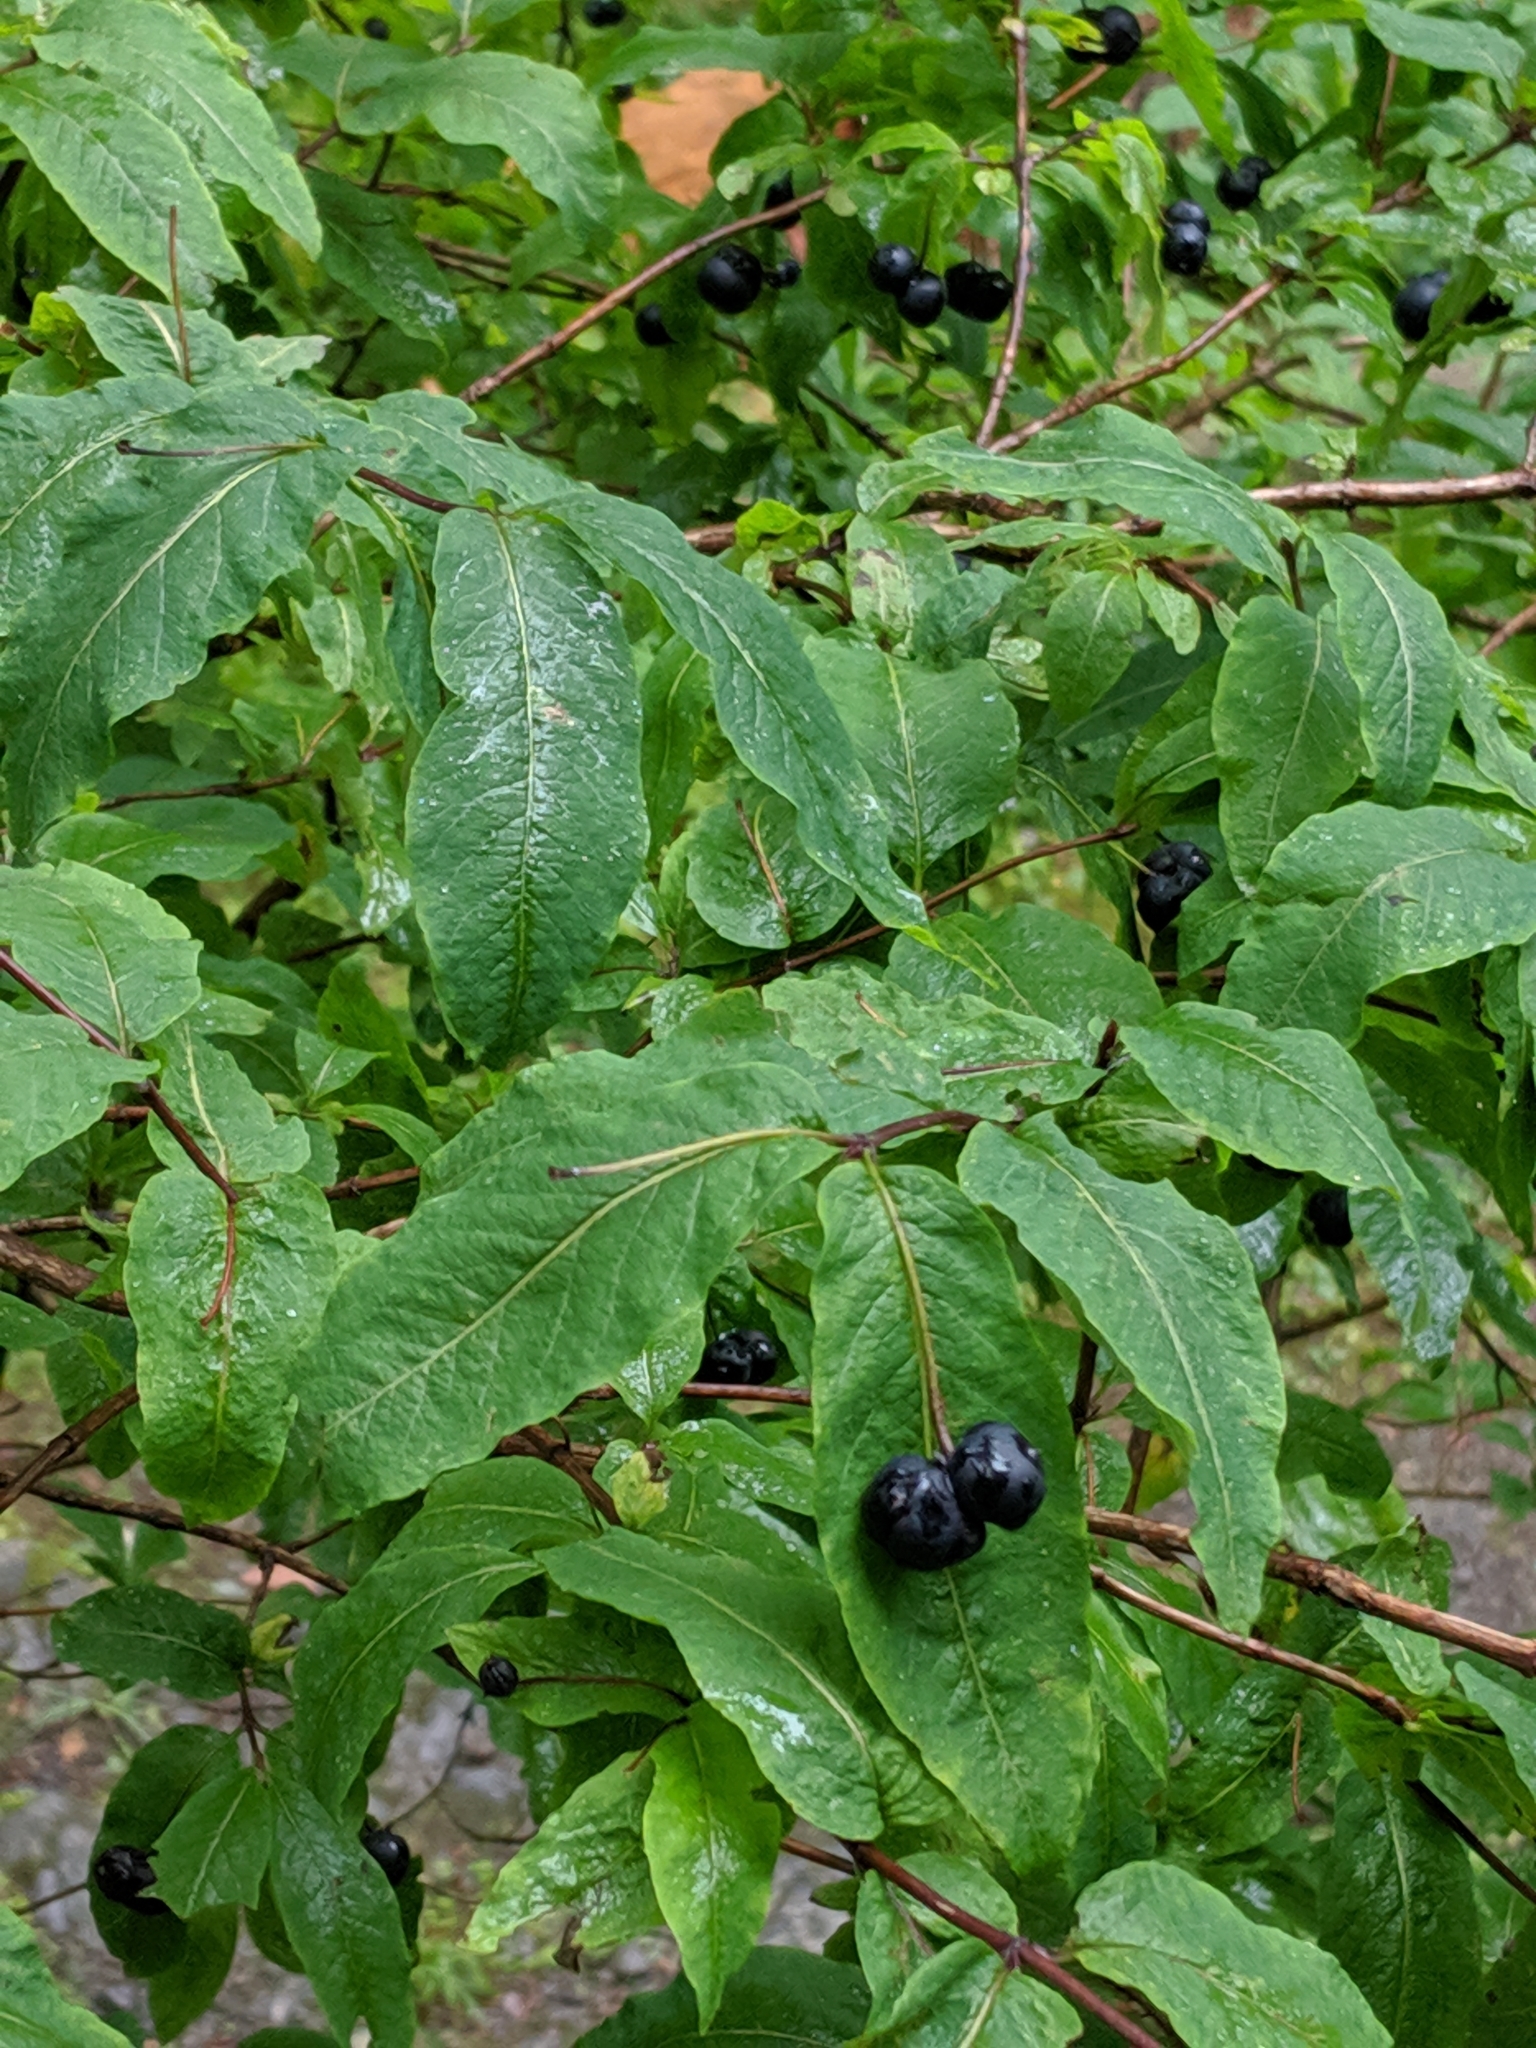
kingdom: Plantae
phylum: Tracheophyta
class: Magnoliopsida
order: Dipsacales
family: Caprifoliaceae
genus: Lonicera
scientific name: Lonicera nigra
